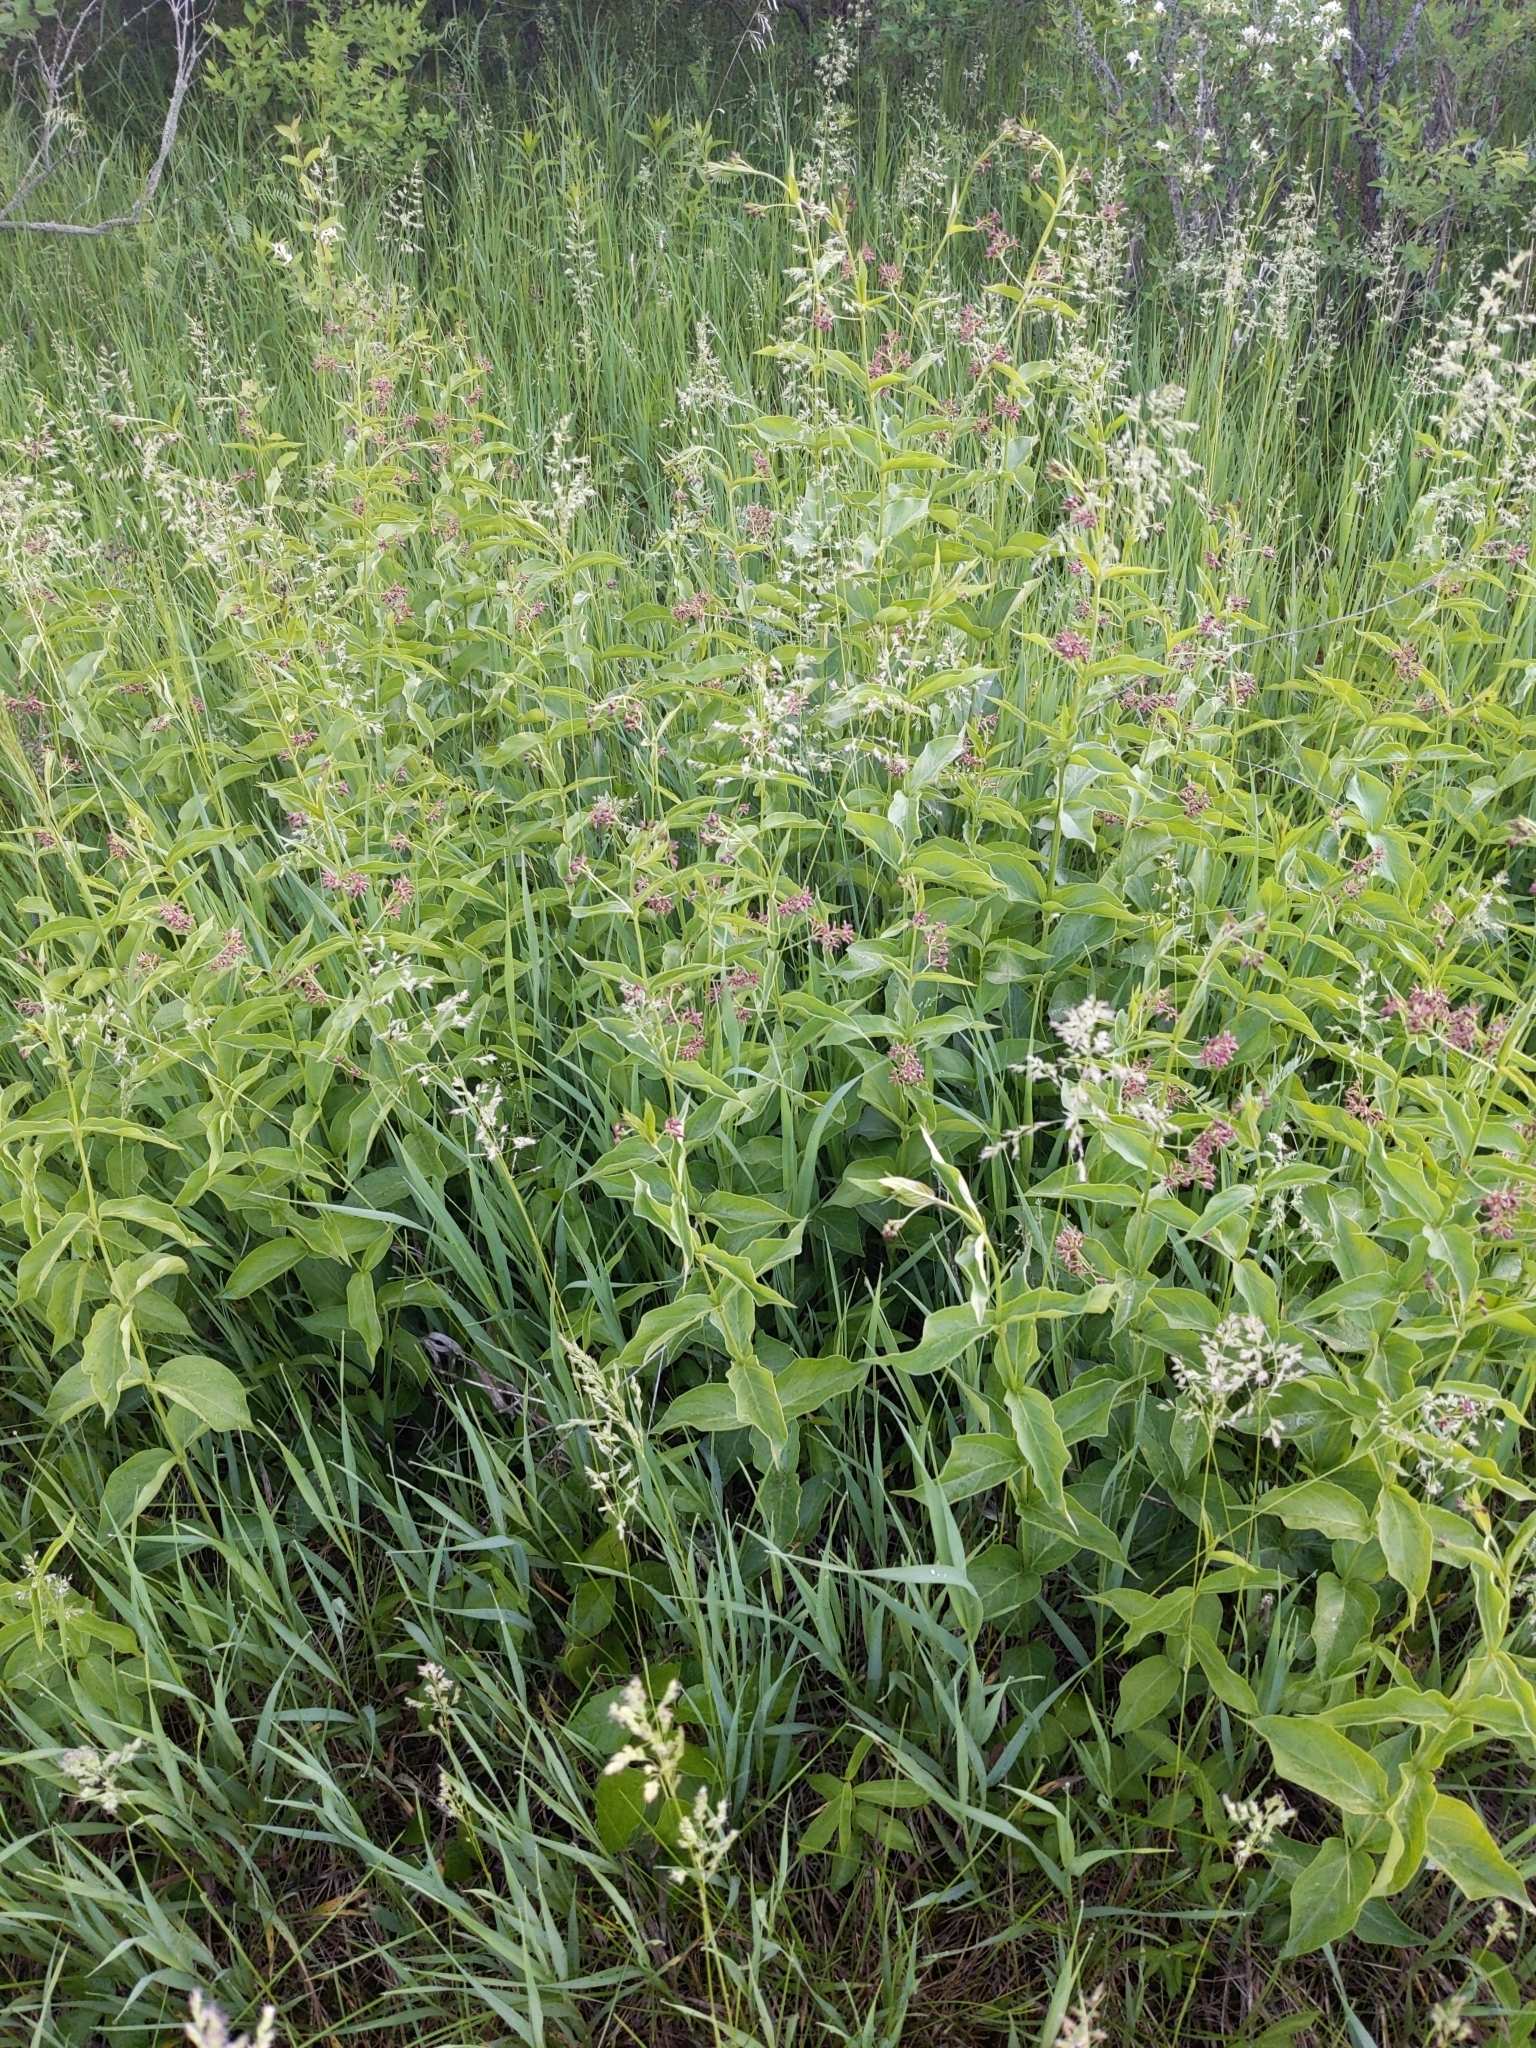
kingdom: Plantae
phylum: Tracheophyta
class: Magnoliopsida
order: Gentianales
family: Apocynaceae
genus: Vincetoxicum
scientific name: Vincetoxicum rossicum
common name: Dog-strangling vine
